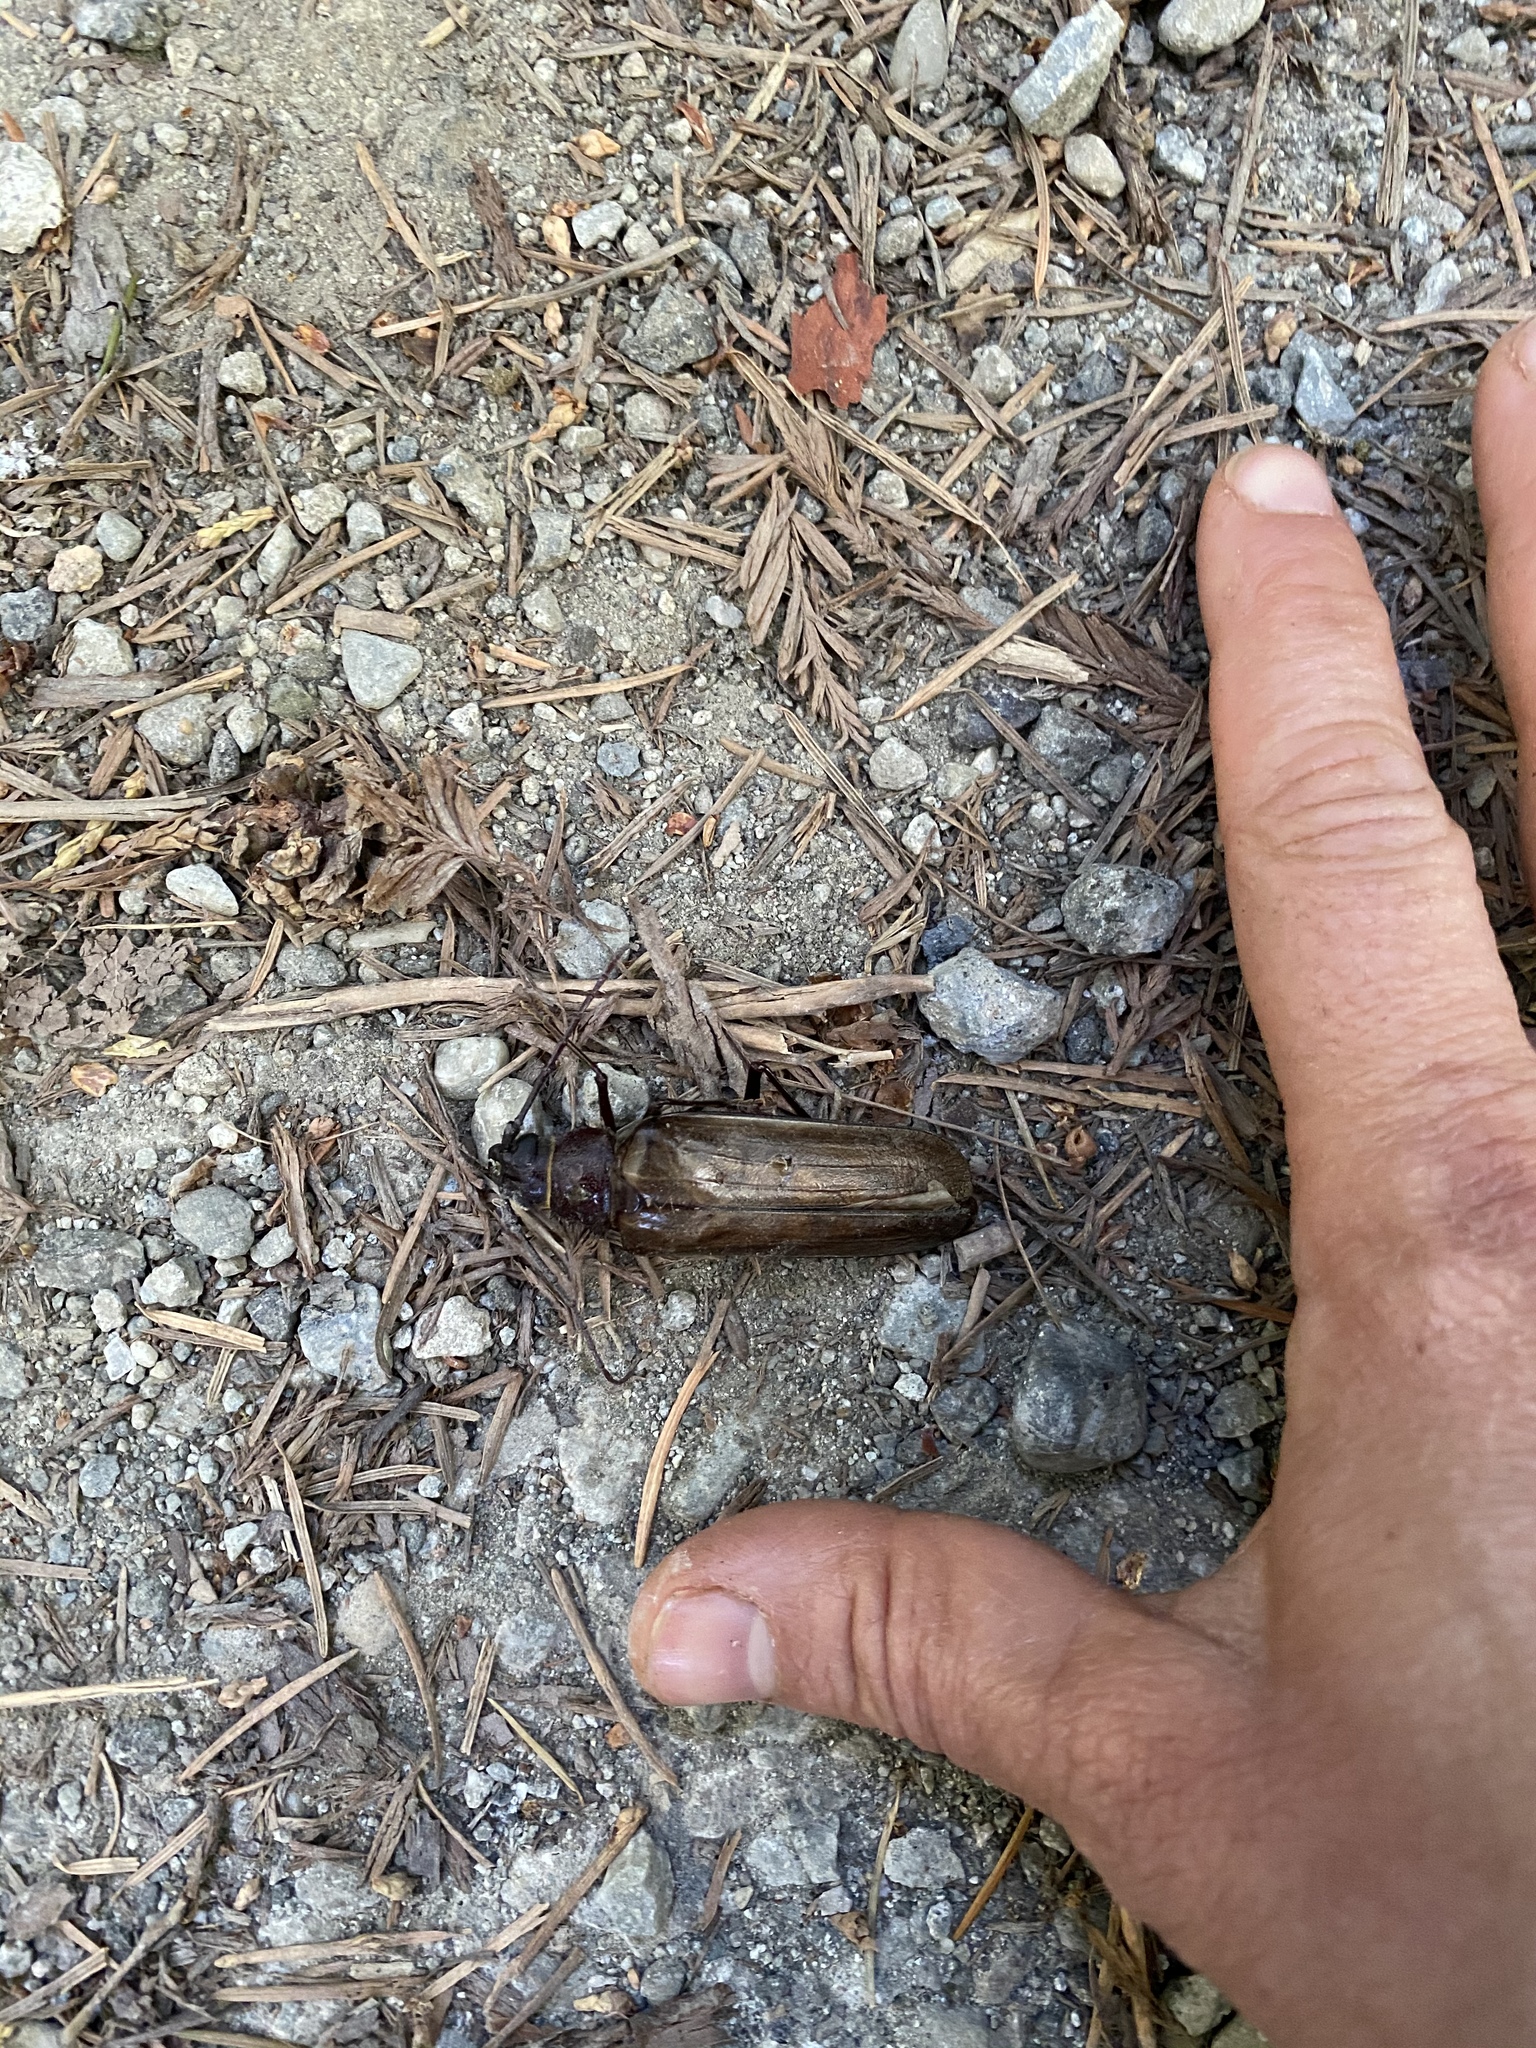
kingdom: Animalia
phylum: Arthropoda
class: Insecta
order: Coleoptera
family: Cerambycidae
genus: Trichocnemis
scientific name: Trichocnemis pauper
